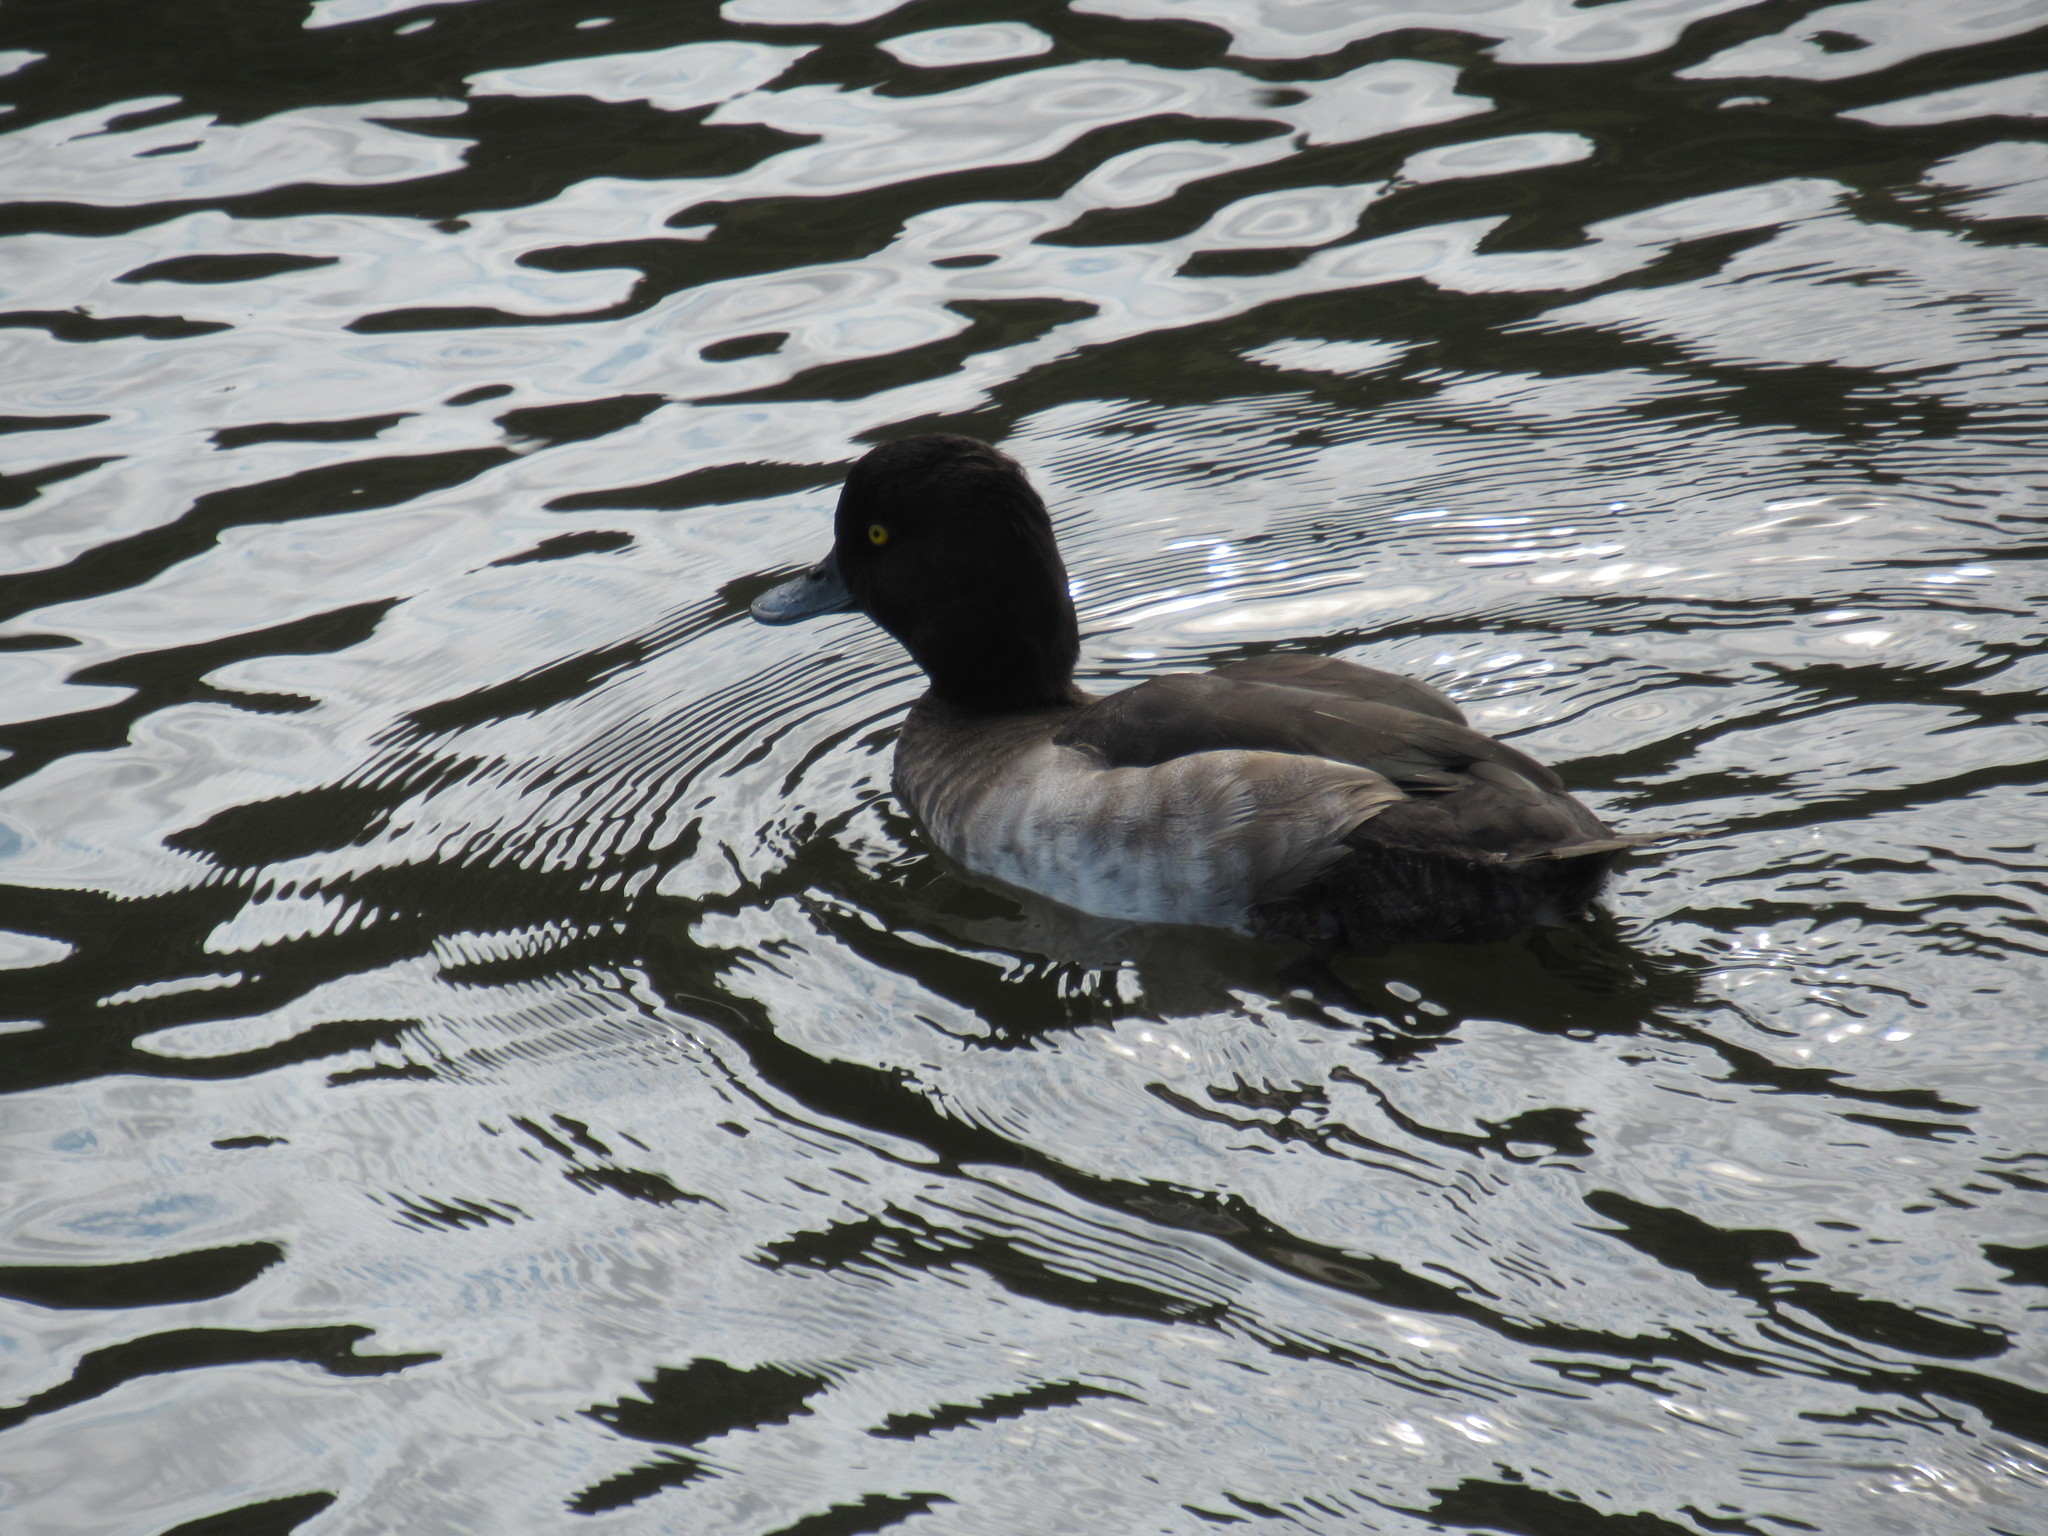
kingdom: Animalia
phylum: Chordata
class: Aves
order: Anseriformes
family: Anatidae
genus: Aythya
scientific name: Aythya fuligula
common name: Tufted duck
